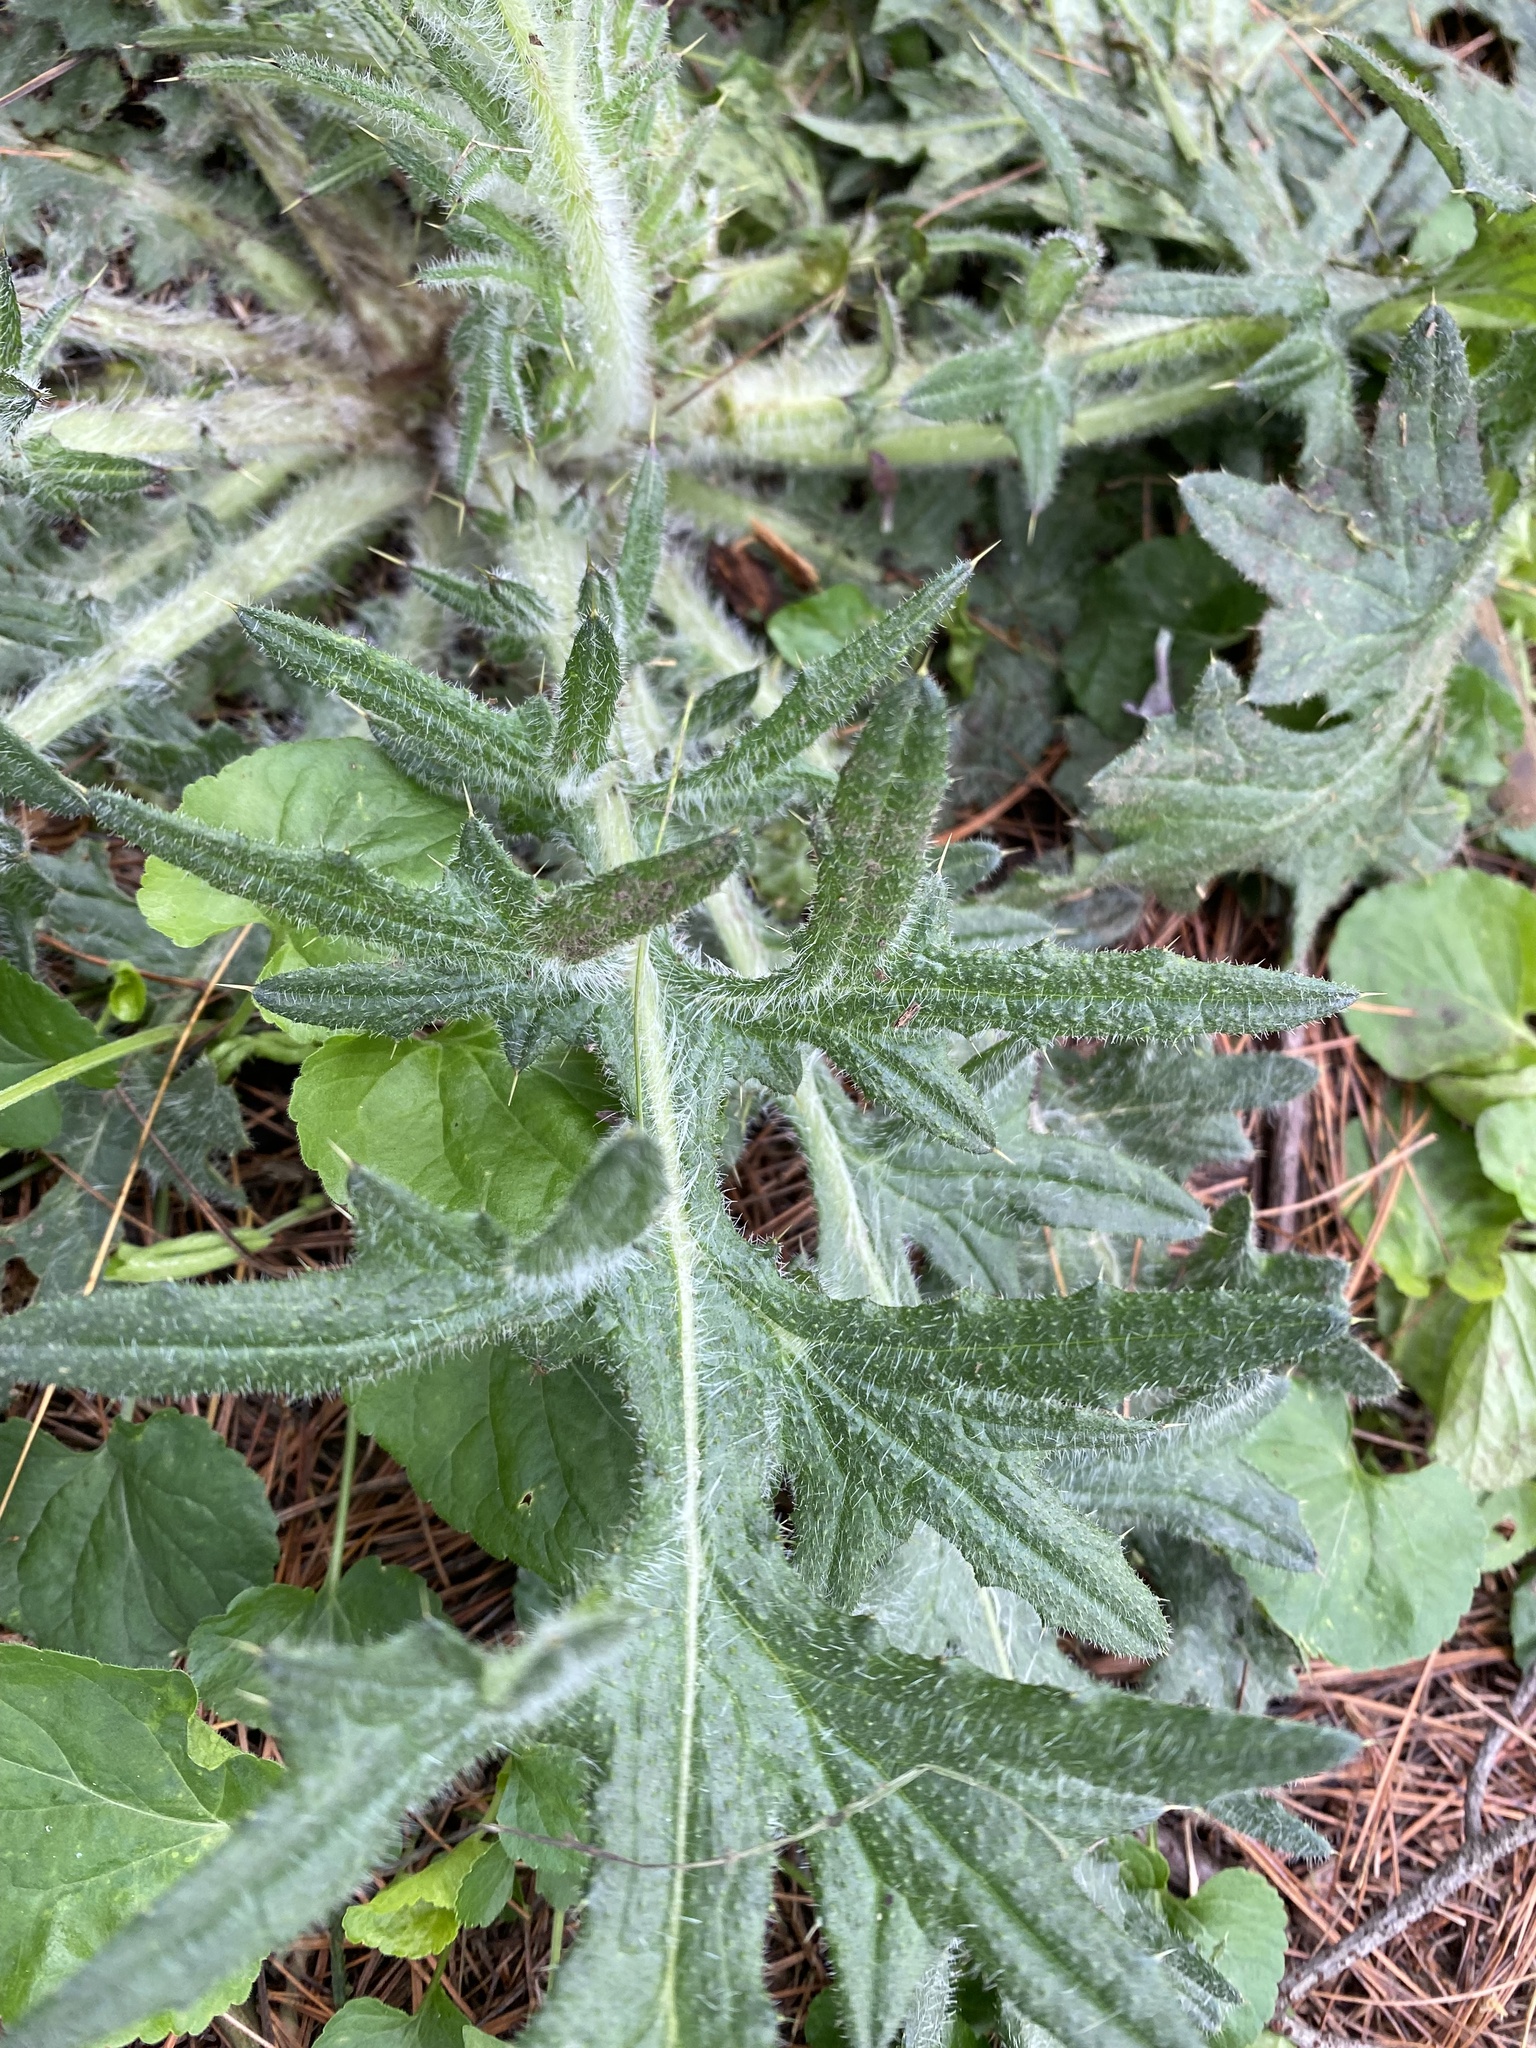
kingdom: Plantae
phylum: Tracheophyta
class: Magnoliopsida
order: Asterales
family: Asteraceae
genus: Cirsium
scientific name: Cirsium vulgare
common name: Bull thistle
